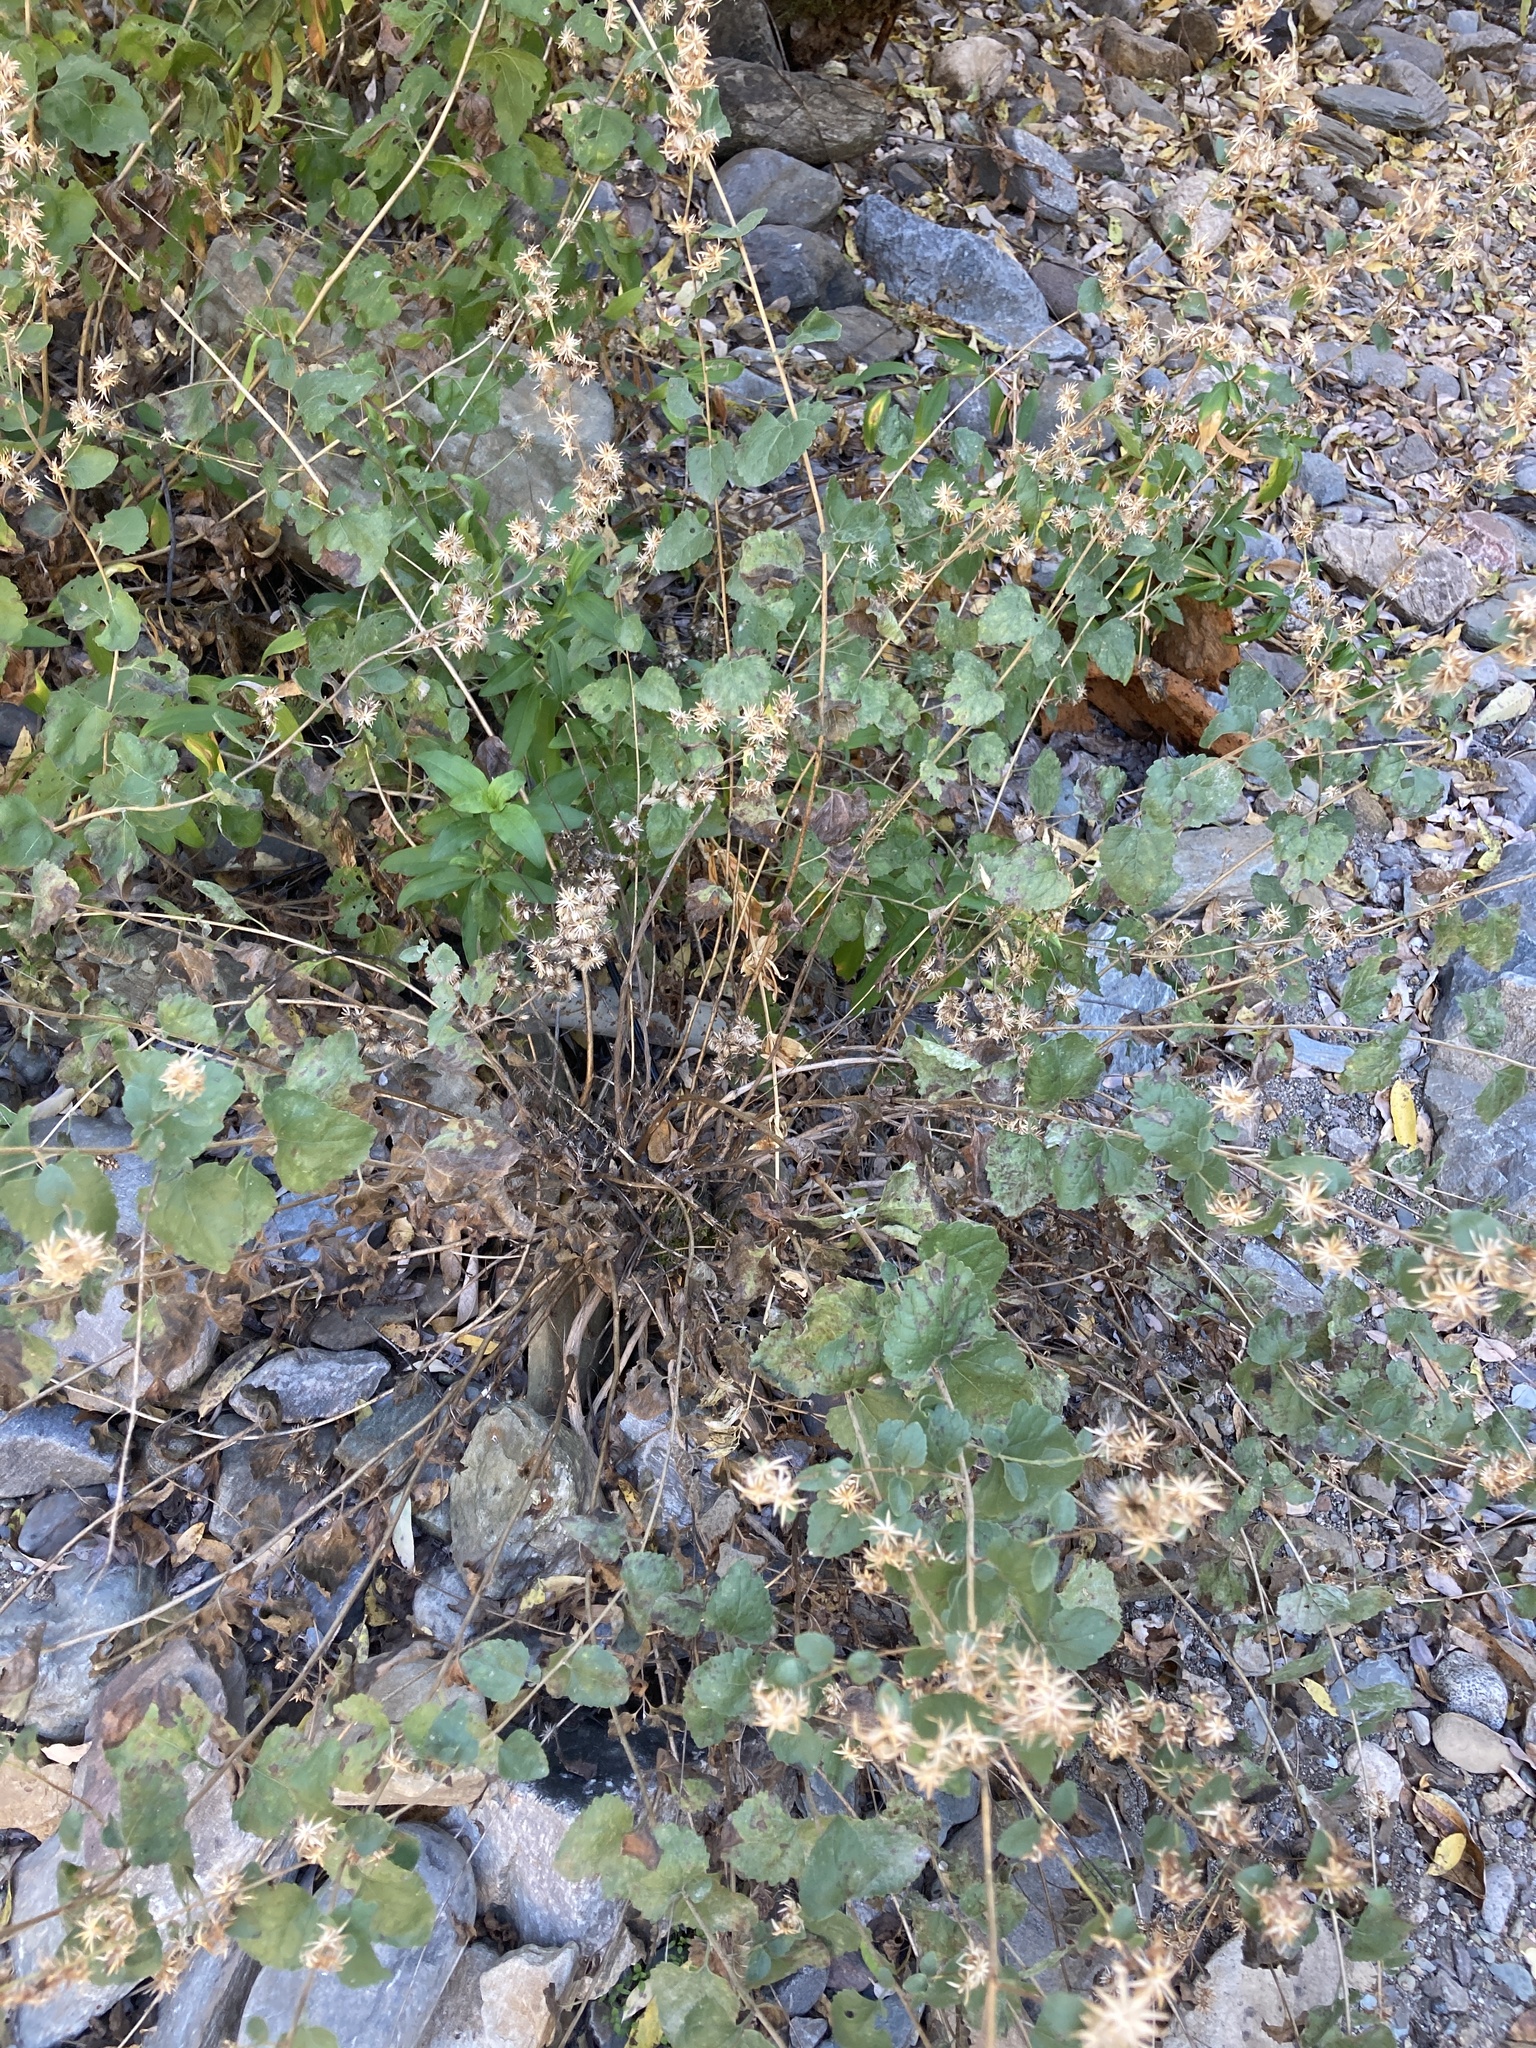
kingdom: Plantae
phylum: Tracheophyta
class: Magnoliopsida
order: Asterales
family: Asteraceae
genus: Brickellia
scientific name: Brickellia californica
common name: California brickellbush
